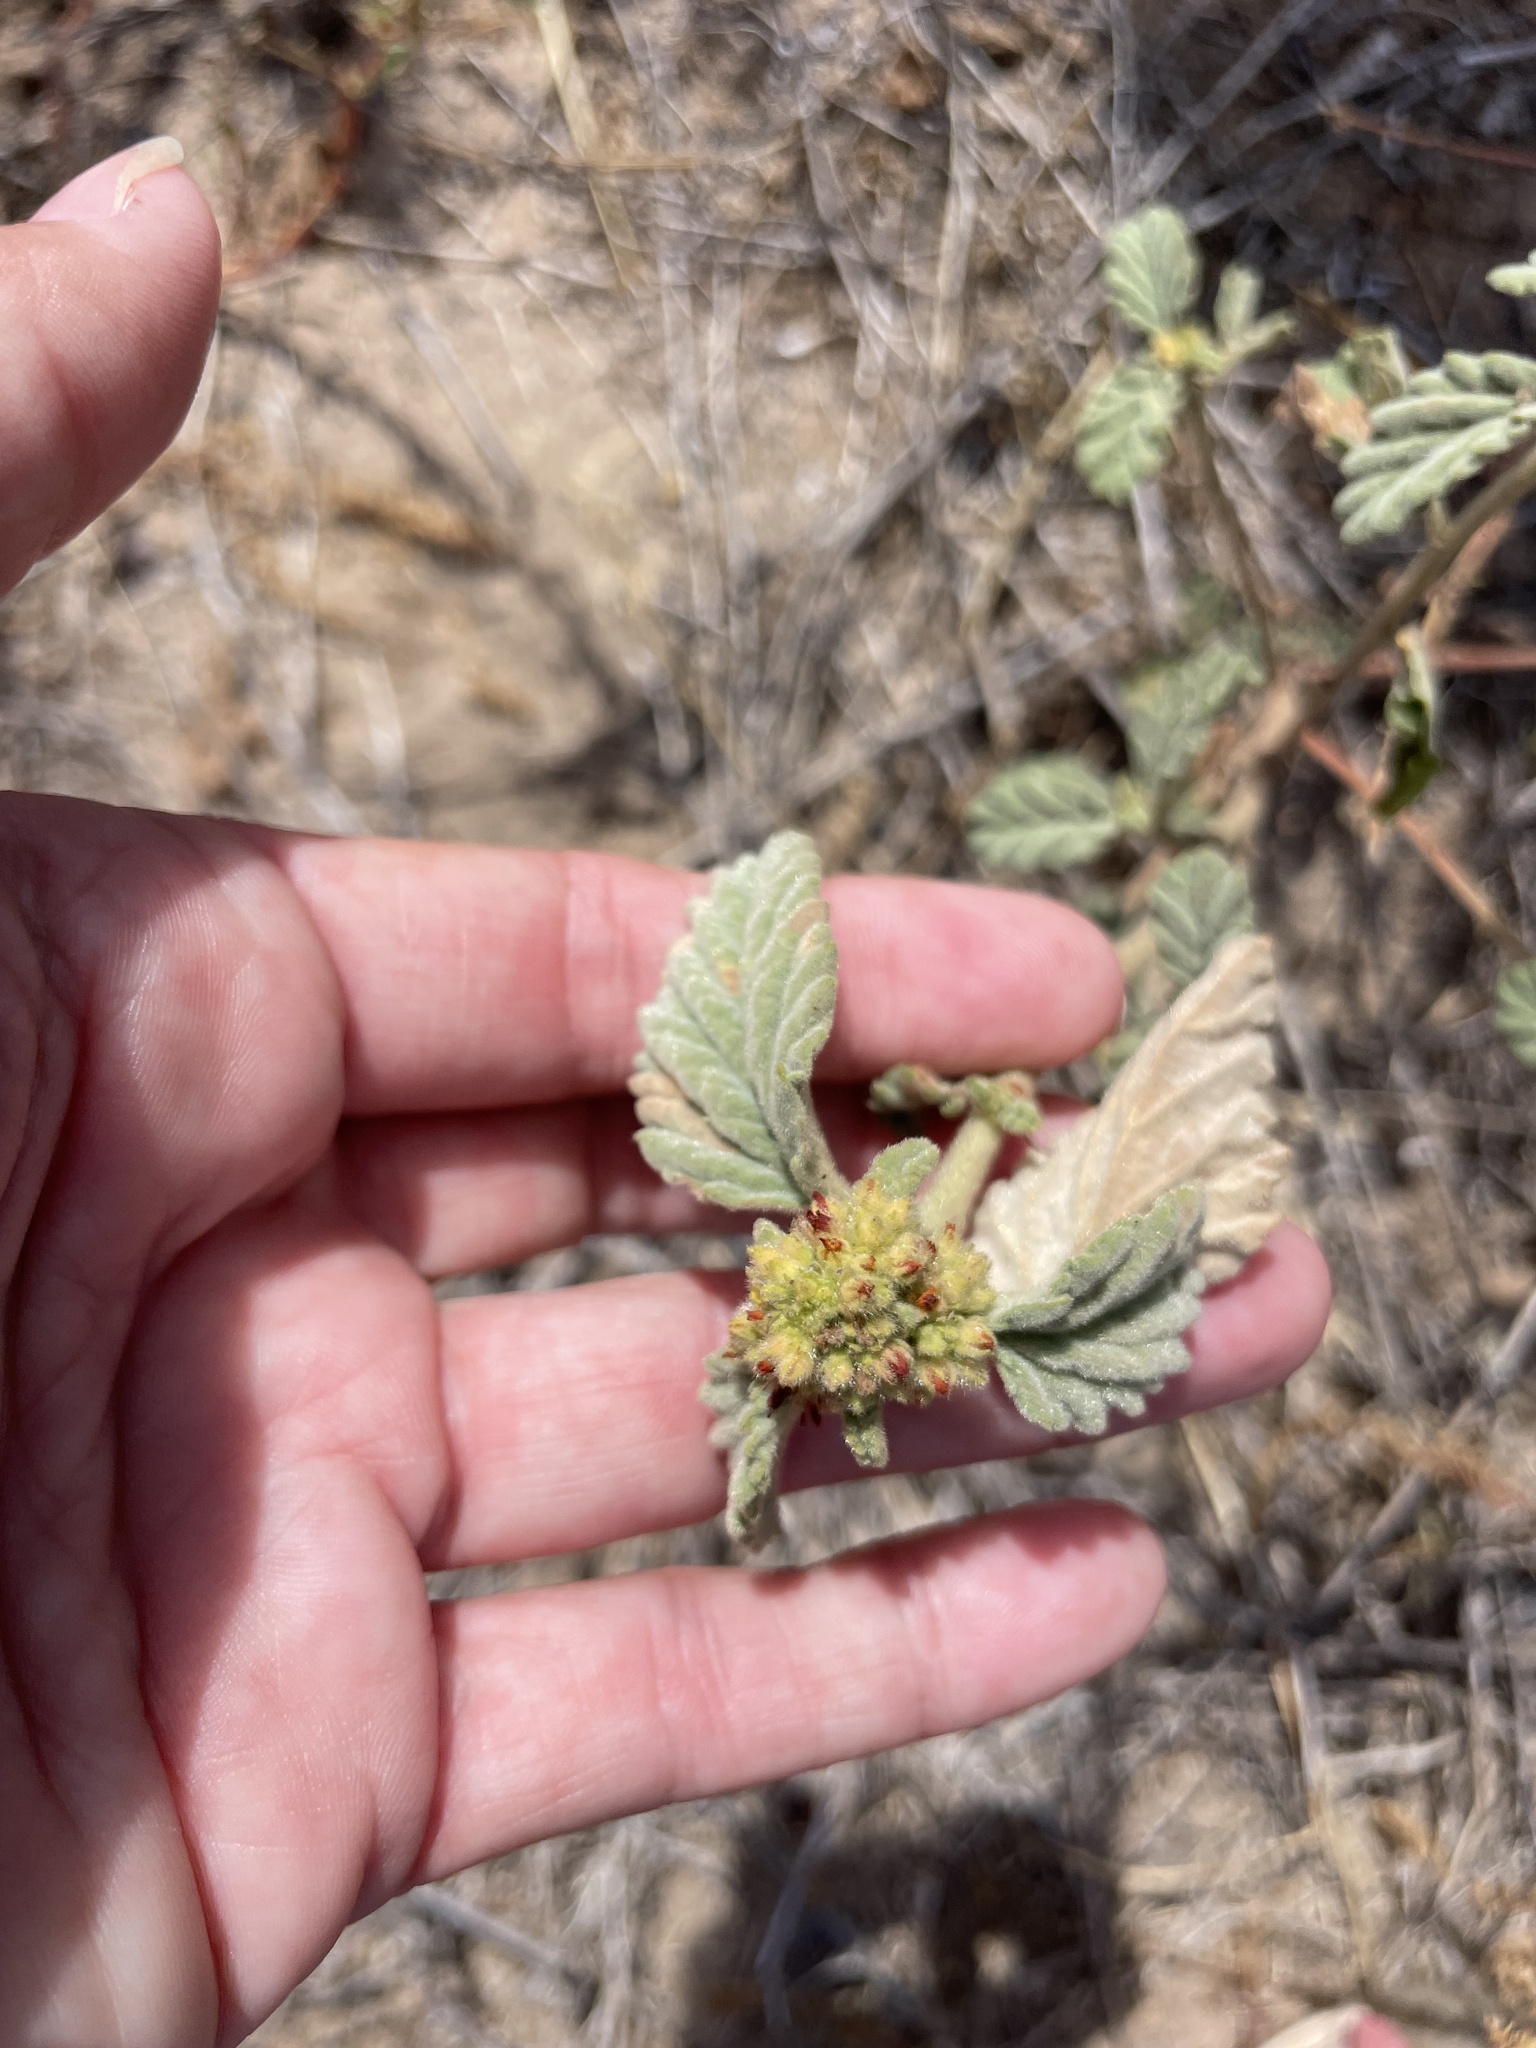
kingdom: Plantae
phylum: Tracheophyta
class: Magnoliopsida
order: Malvales
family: Malvaceae
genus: Waltheria
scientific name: Waltheria indica
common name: Leather-coat
